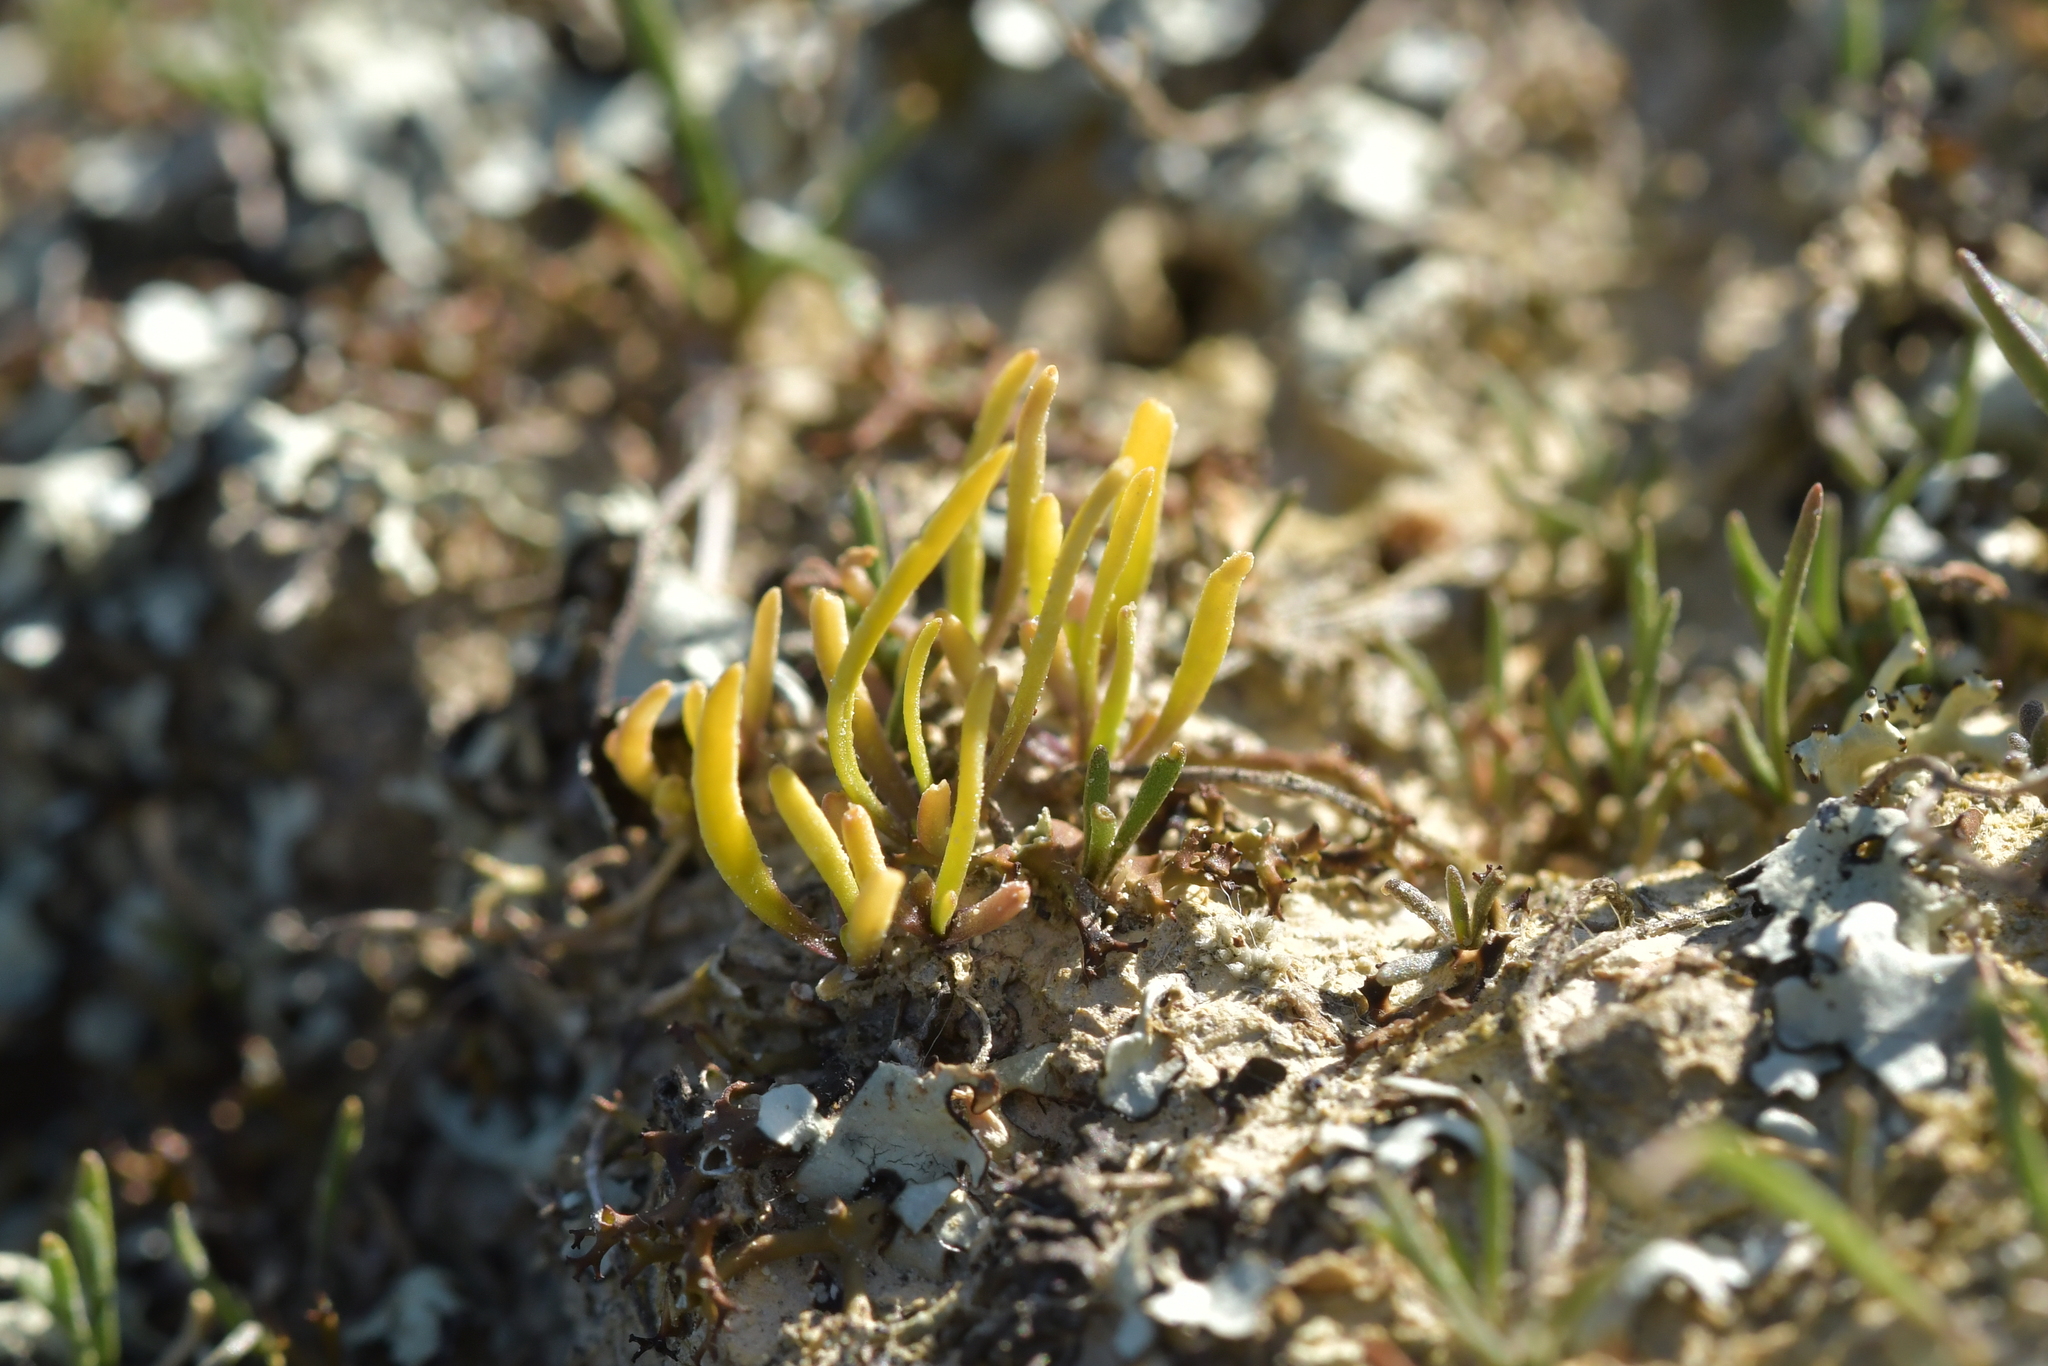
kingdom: Plantae
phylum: Tracheophyta
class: Magnoliopsida
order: Ranunculales
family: Ranunculaceae
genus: Myosurus
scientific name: Myosurus minimus
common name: Mousetail
